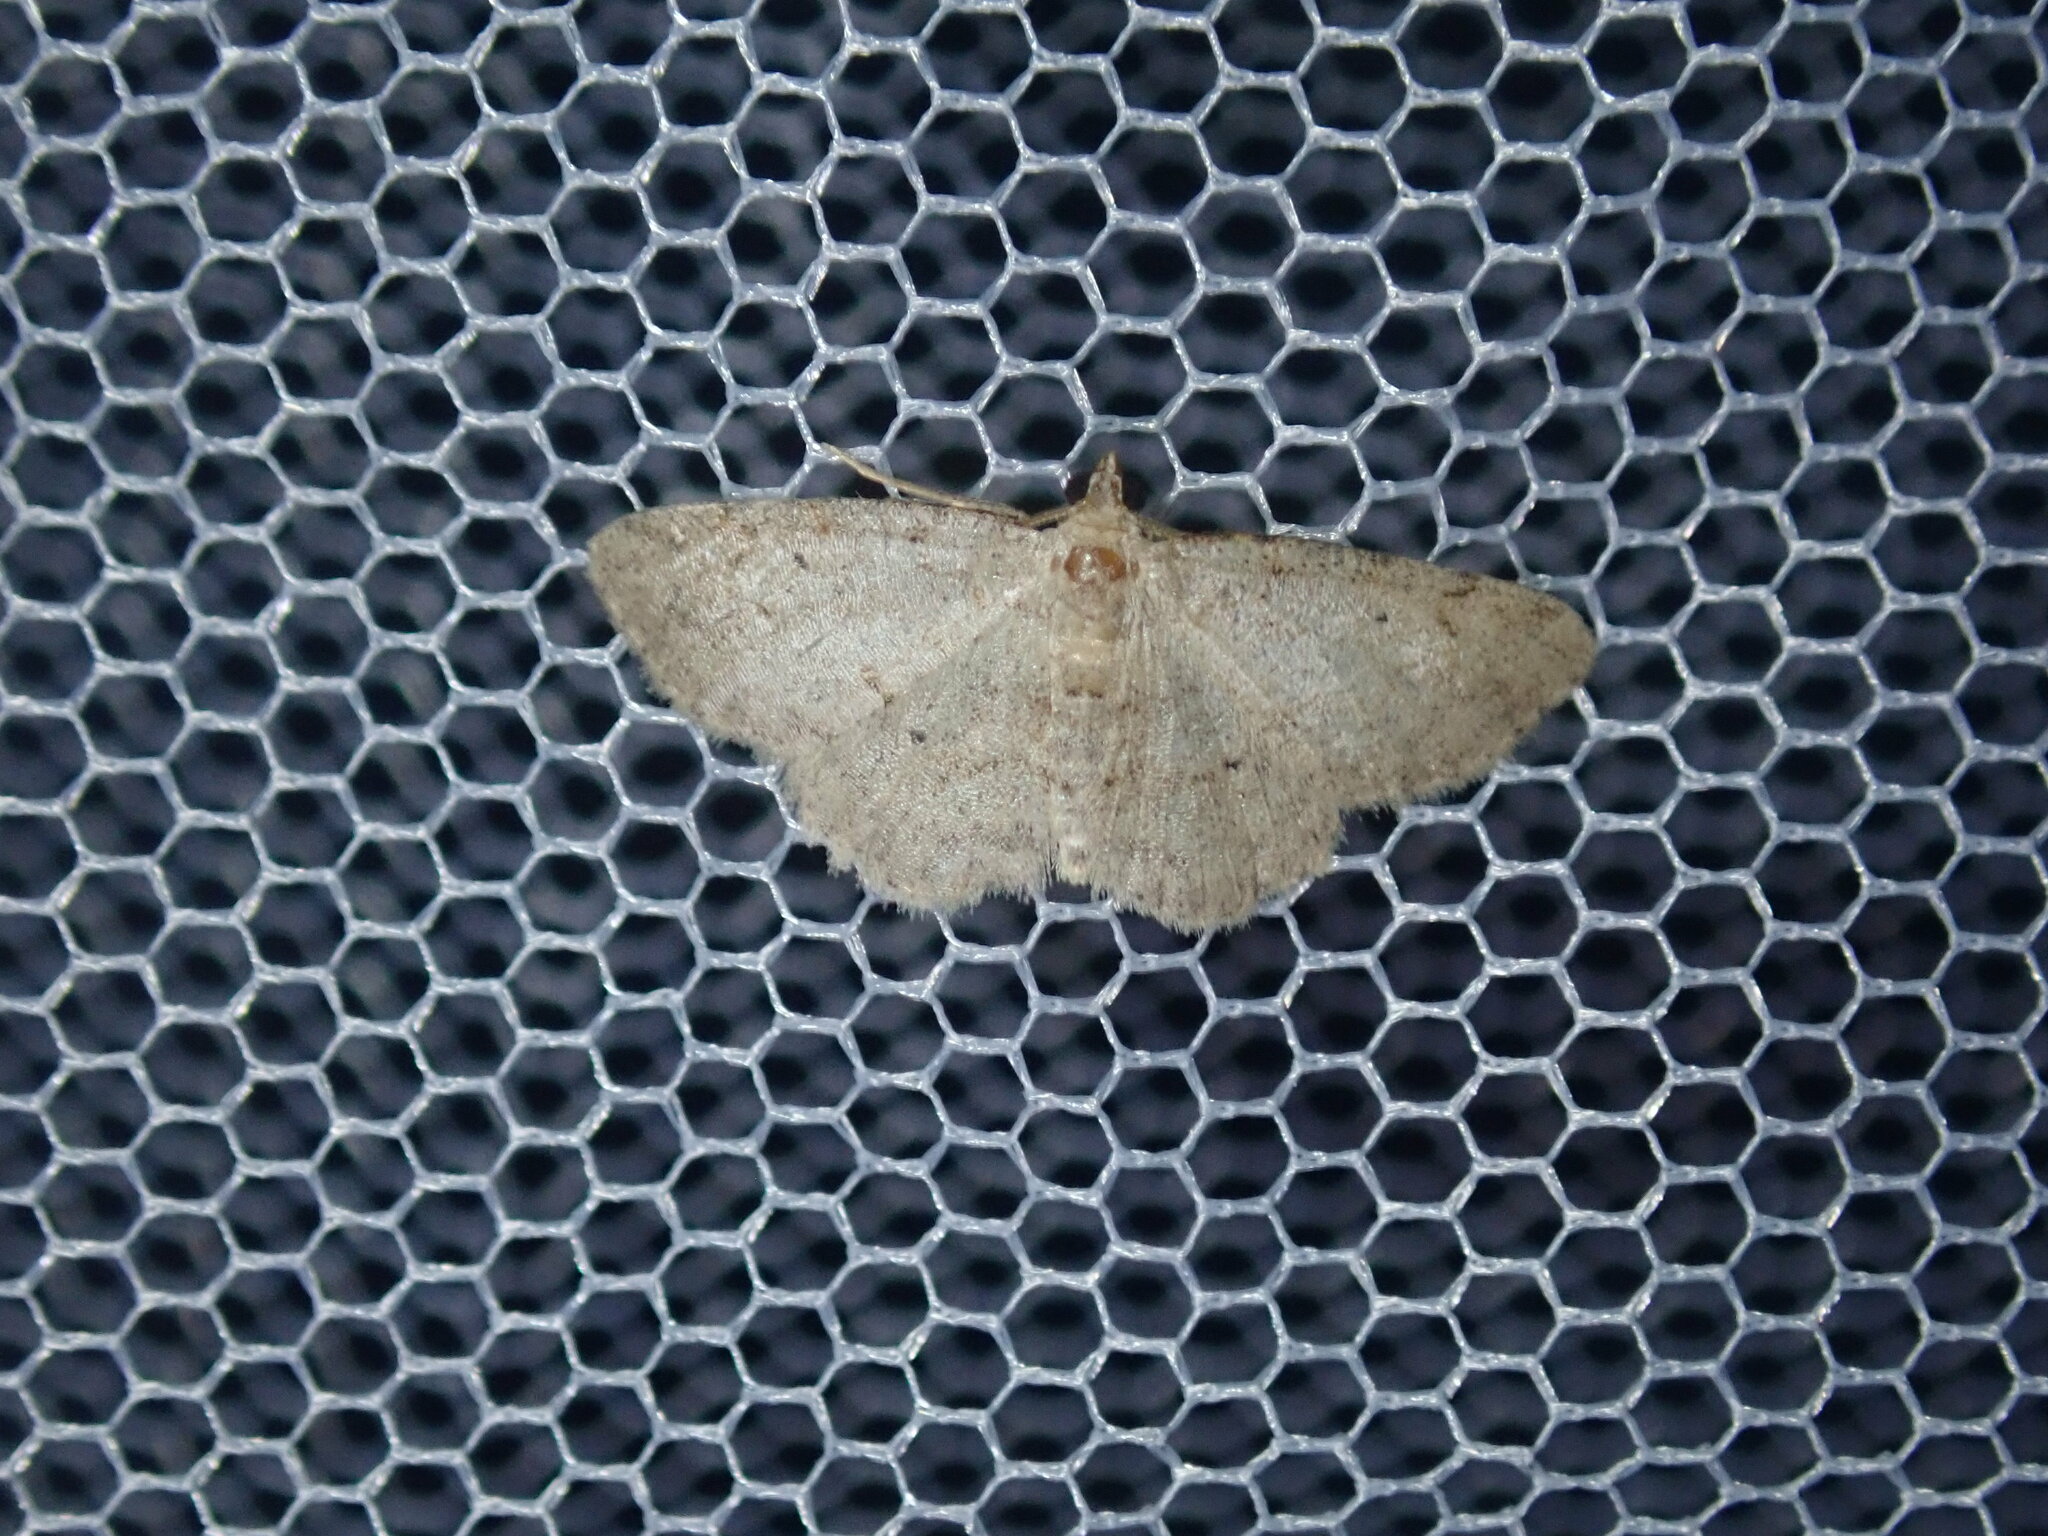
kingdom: Animalia
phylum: Arthropoda
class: Insecta
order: Lepidoptera
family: Geometridae
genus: Ectropis
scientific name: Ectropis argalea
